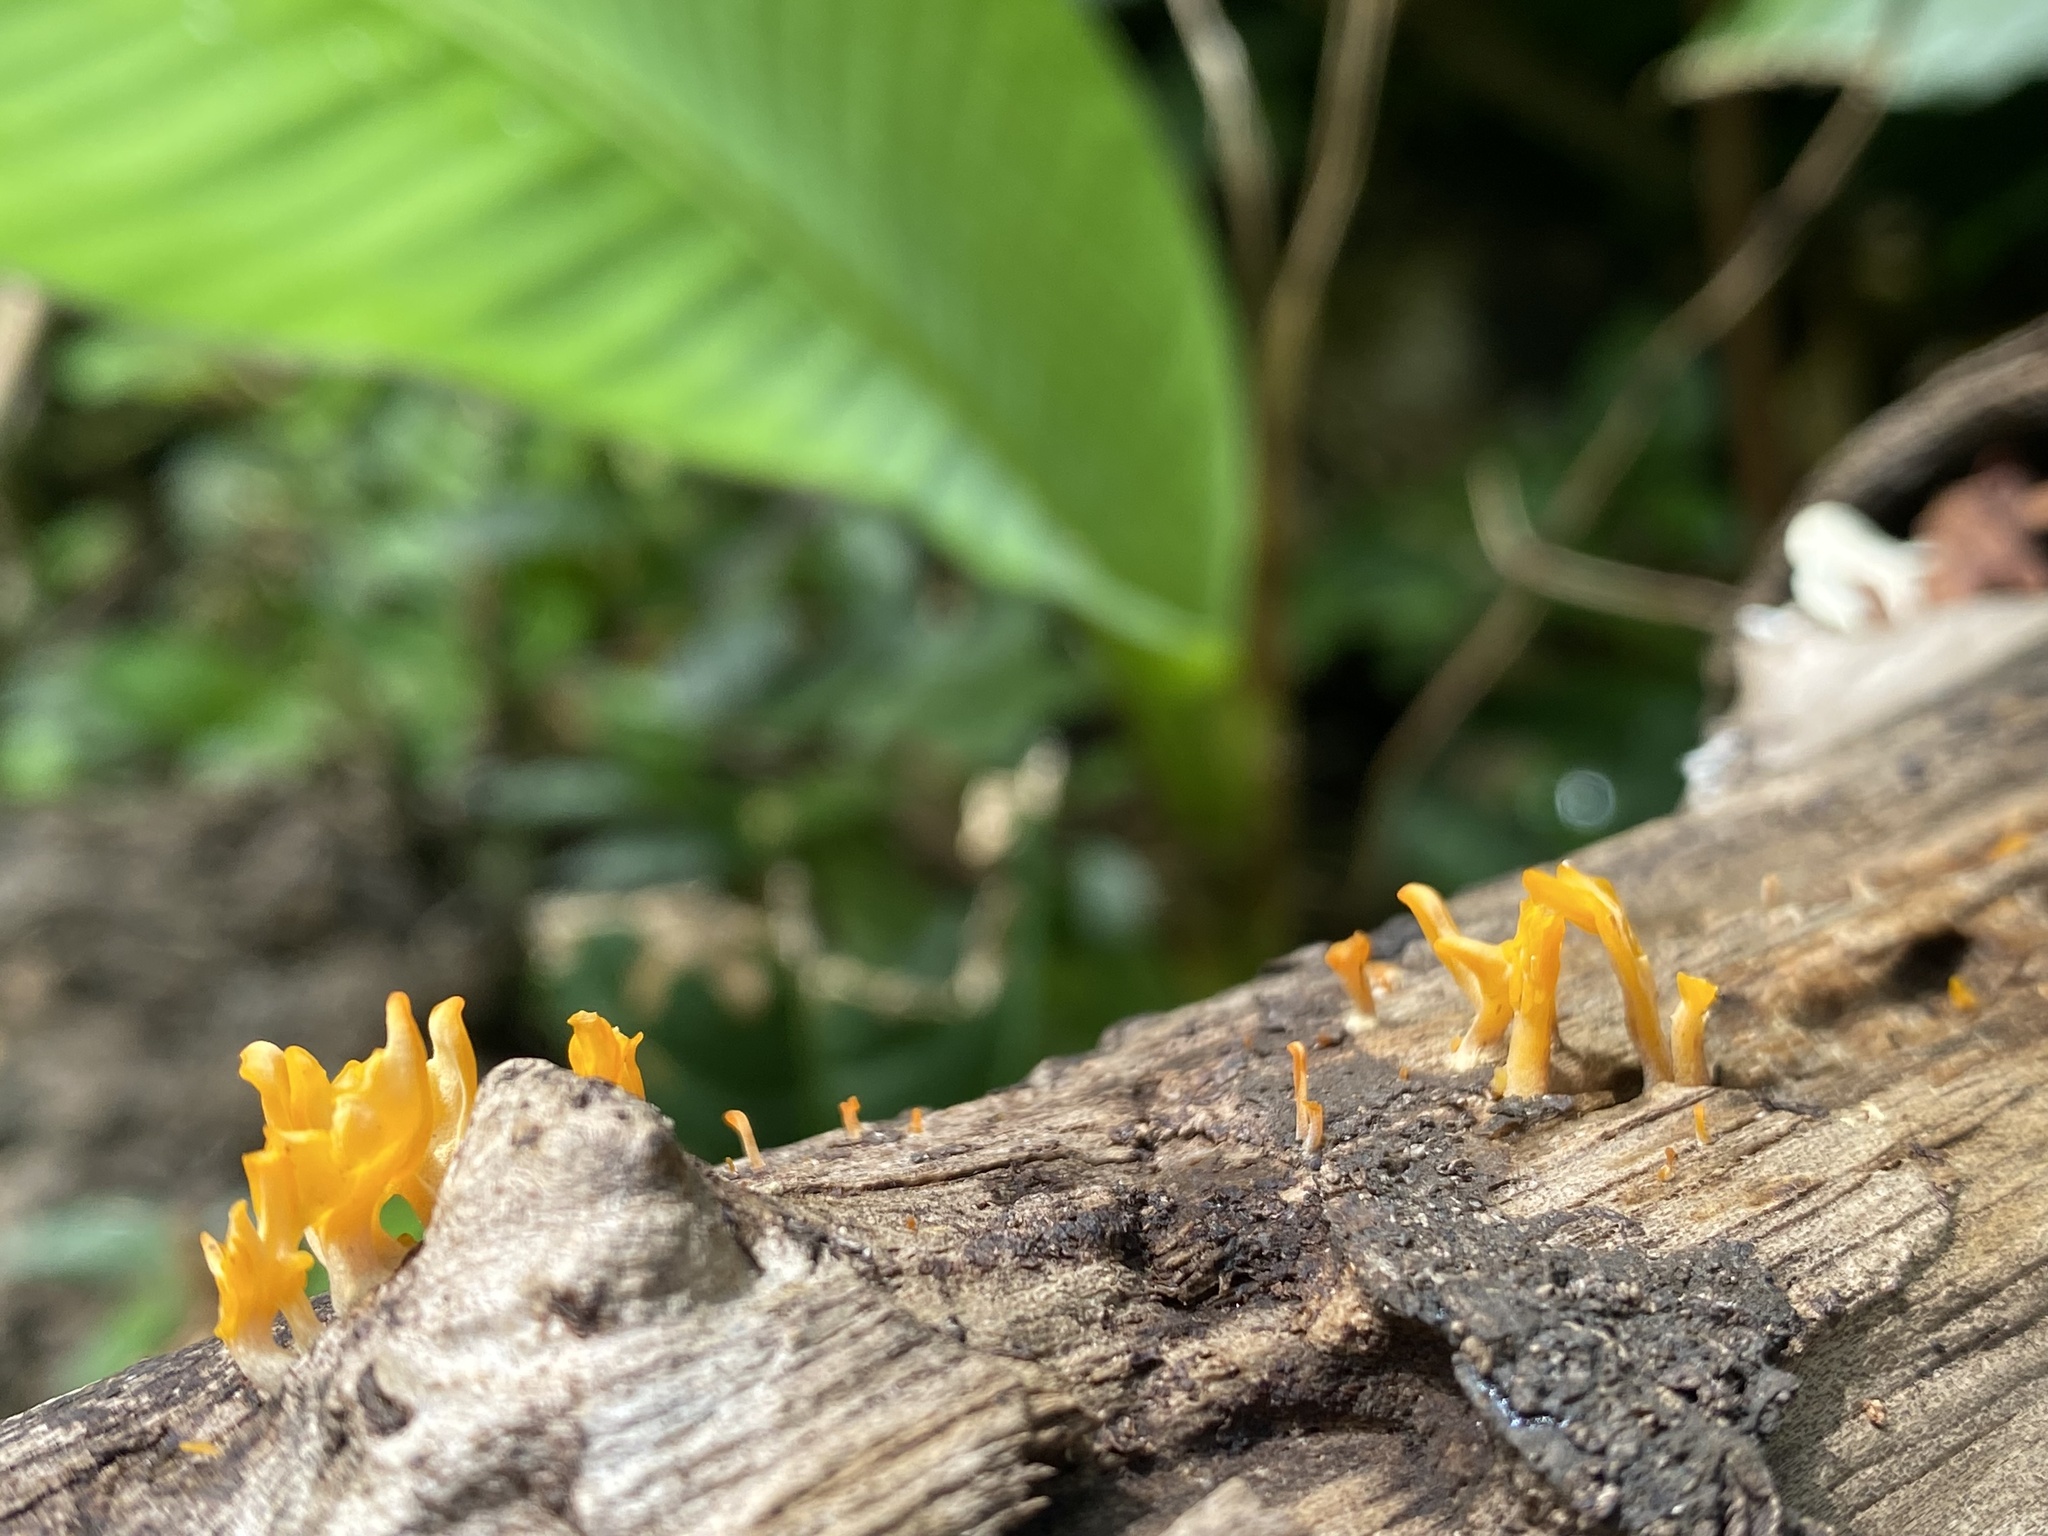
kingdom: Fungi
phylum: Basidiomycota
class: Dacrymycetes
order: Dacrymycetales
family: Dacrymycetaceae
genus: Dacrymyces
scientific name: Dacrymyces spathularius
